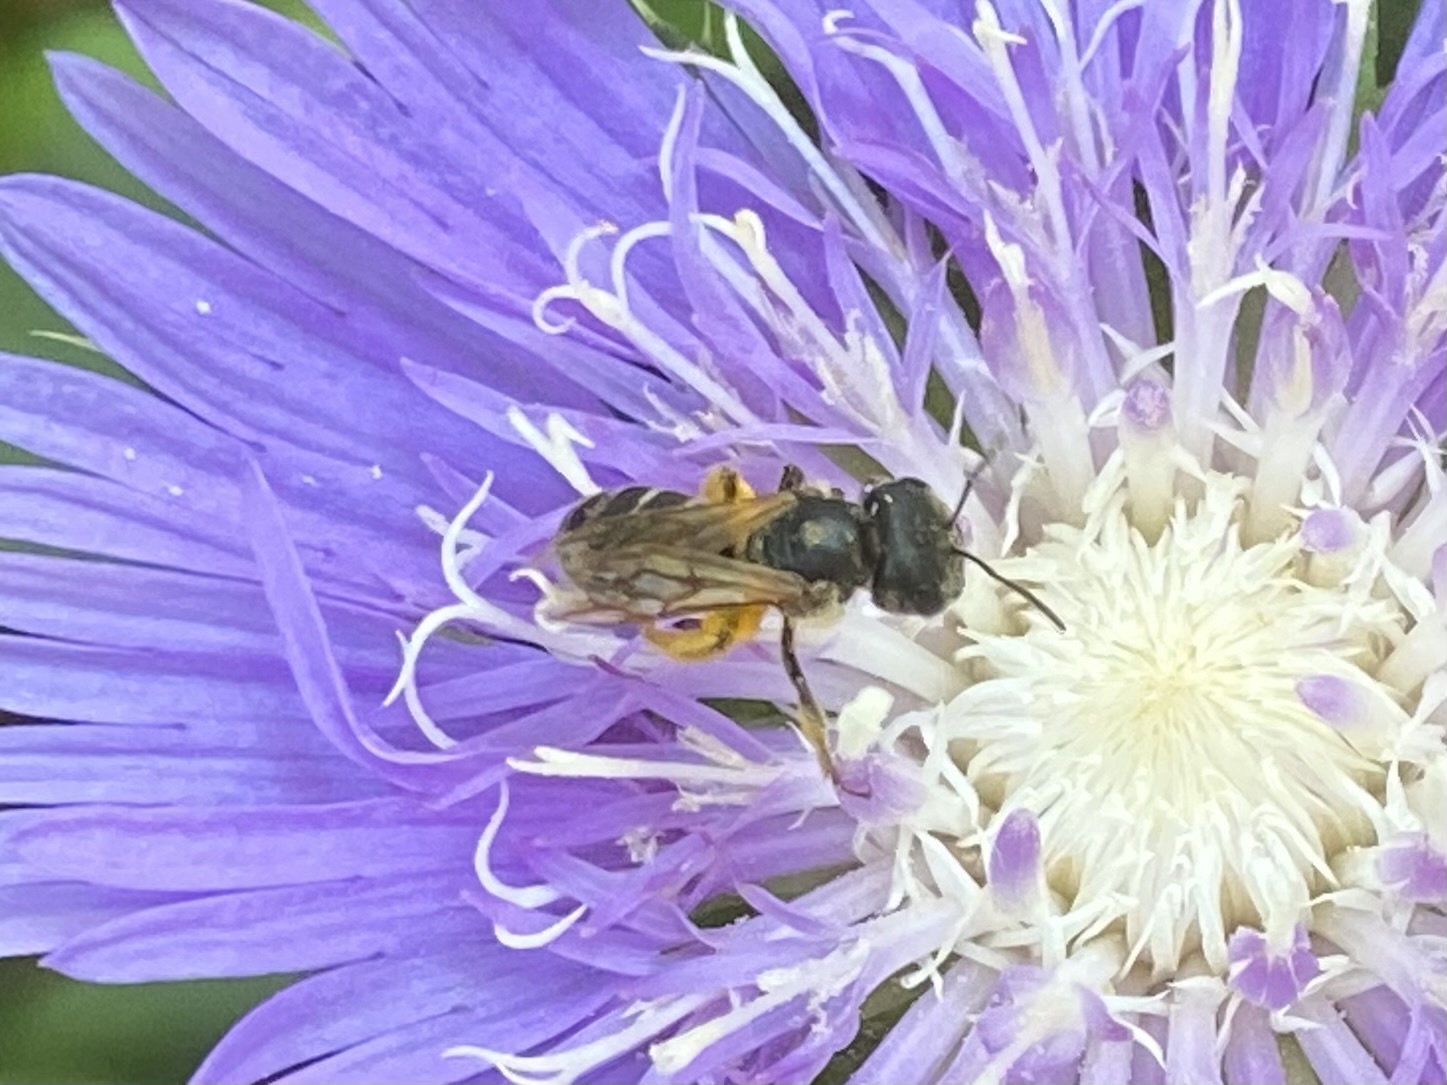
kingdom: Animalia
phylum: Arthropoda
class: Insecta
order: Hymenoptera
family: Halictidae
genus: Halictus
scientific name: Halictus poeyi
